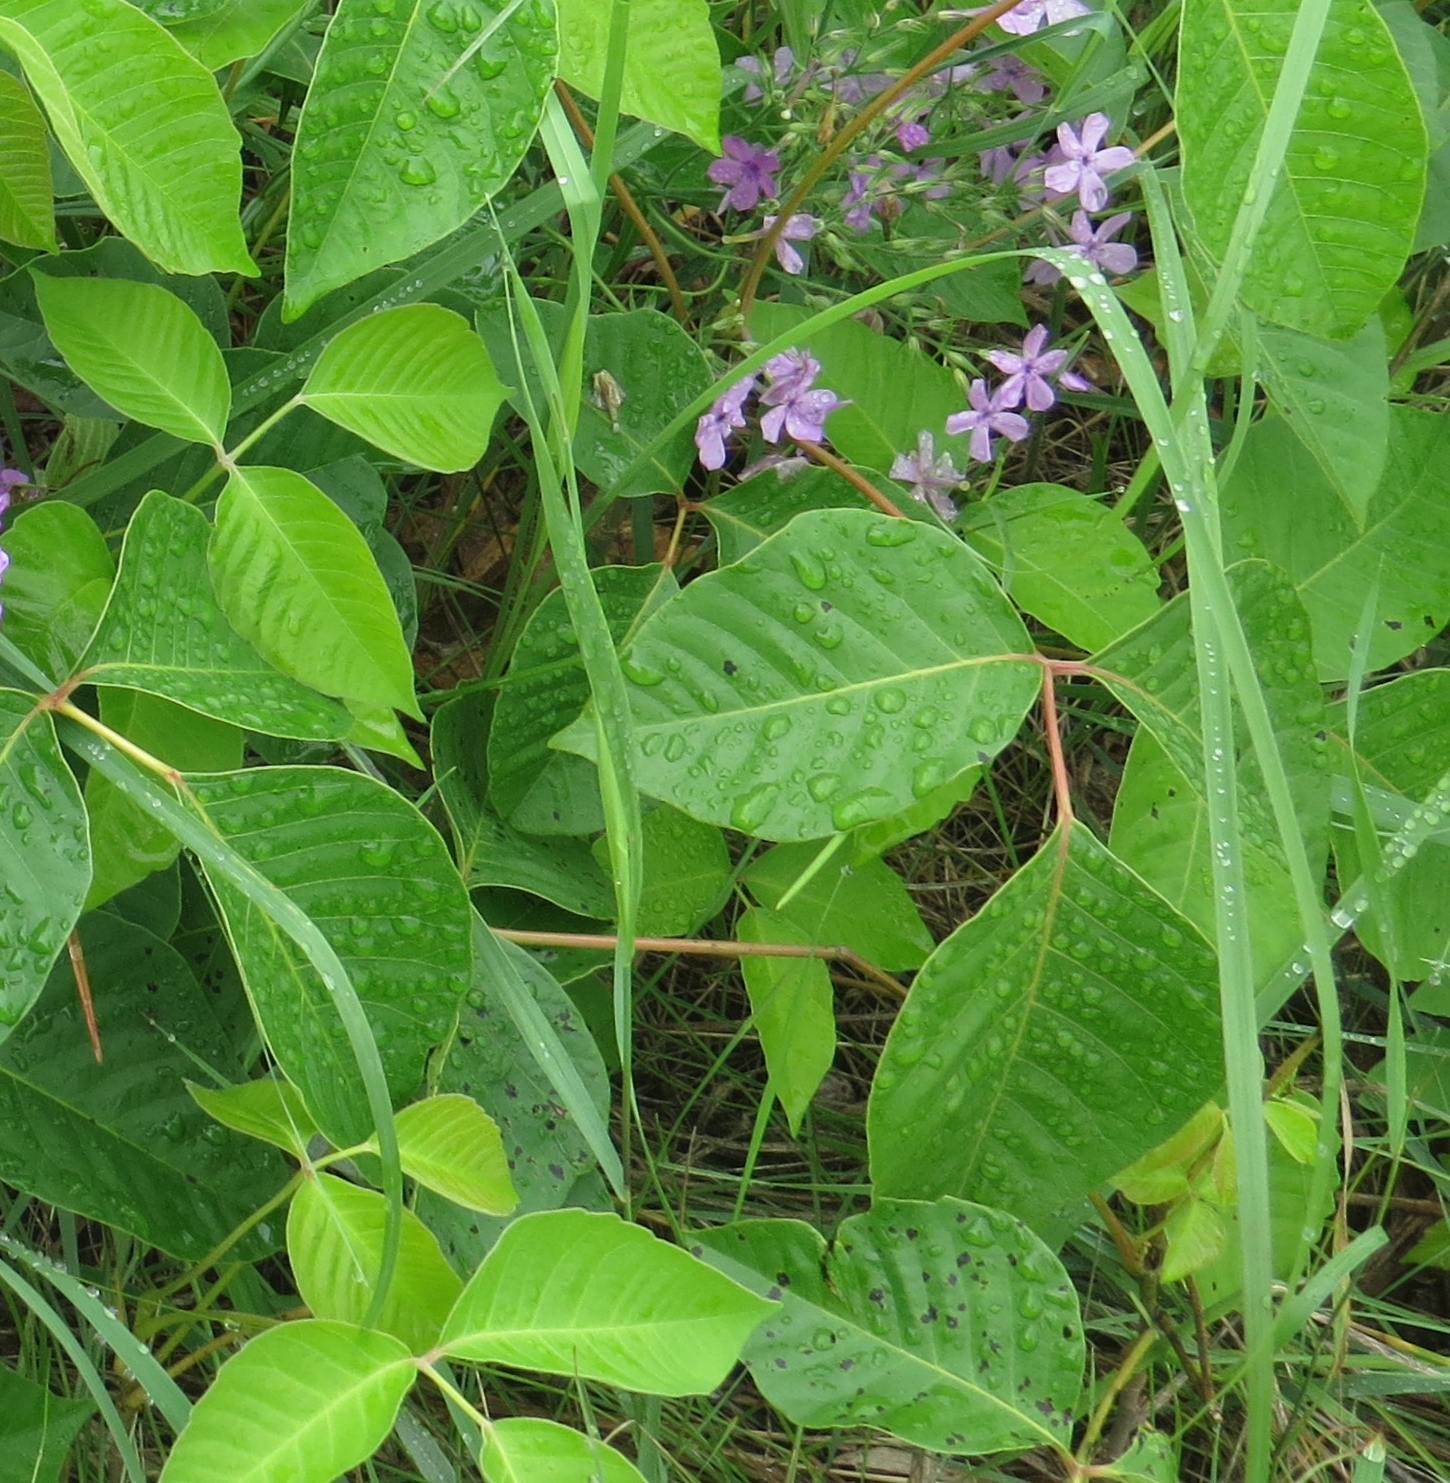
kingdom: Plantae
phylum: Tracheophyta
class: Magnoliopsida
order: Sapindales
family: Anacardiaceae
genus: Toxicodendron
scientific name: Toxicodendron rydbergii
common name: Rydberg's poison-ivy
